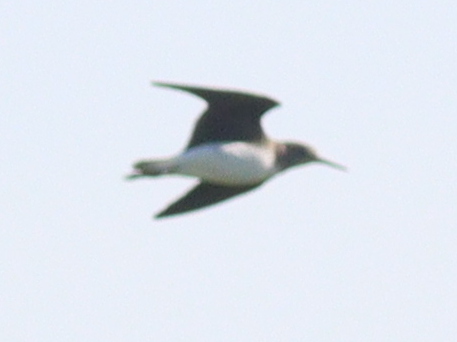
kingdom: Animalia
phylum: Chordata
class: Aves
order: Charadriiformes
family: Scolopacidae
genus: Tringa
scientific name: Tringa ochropus
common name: Green sandpiper
